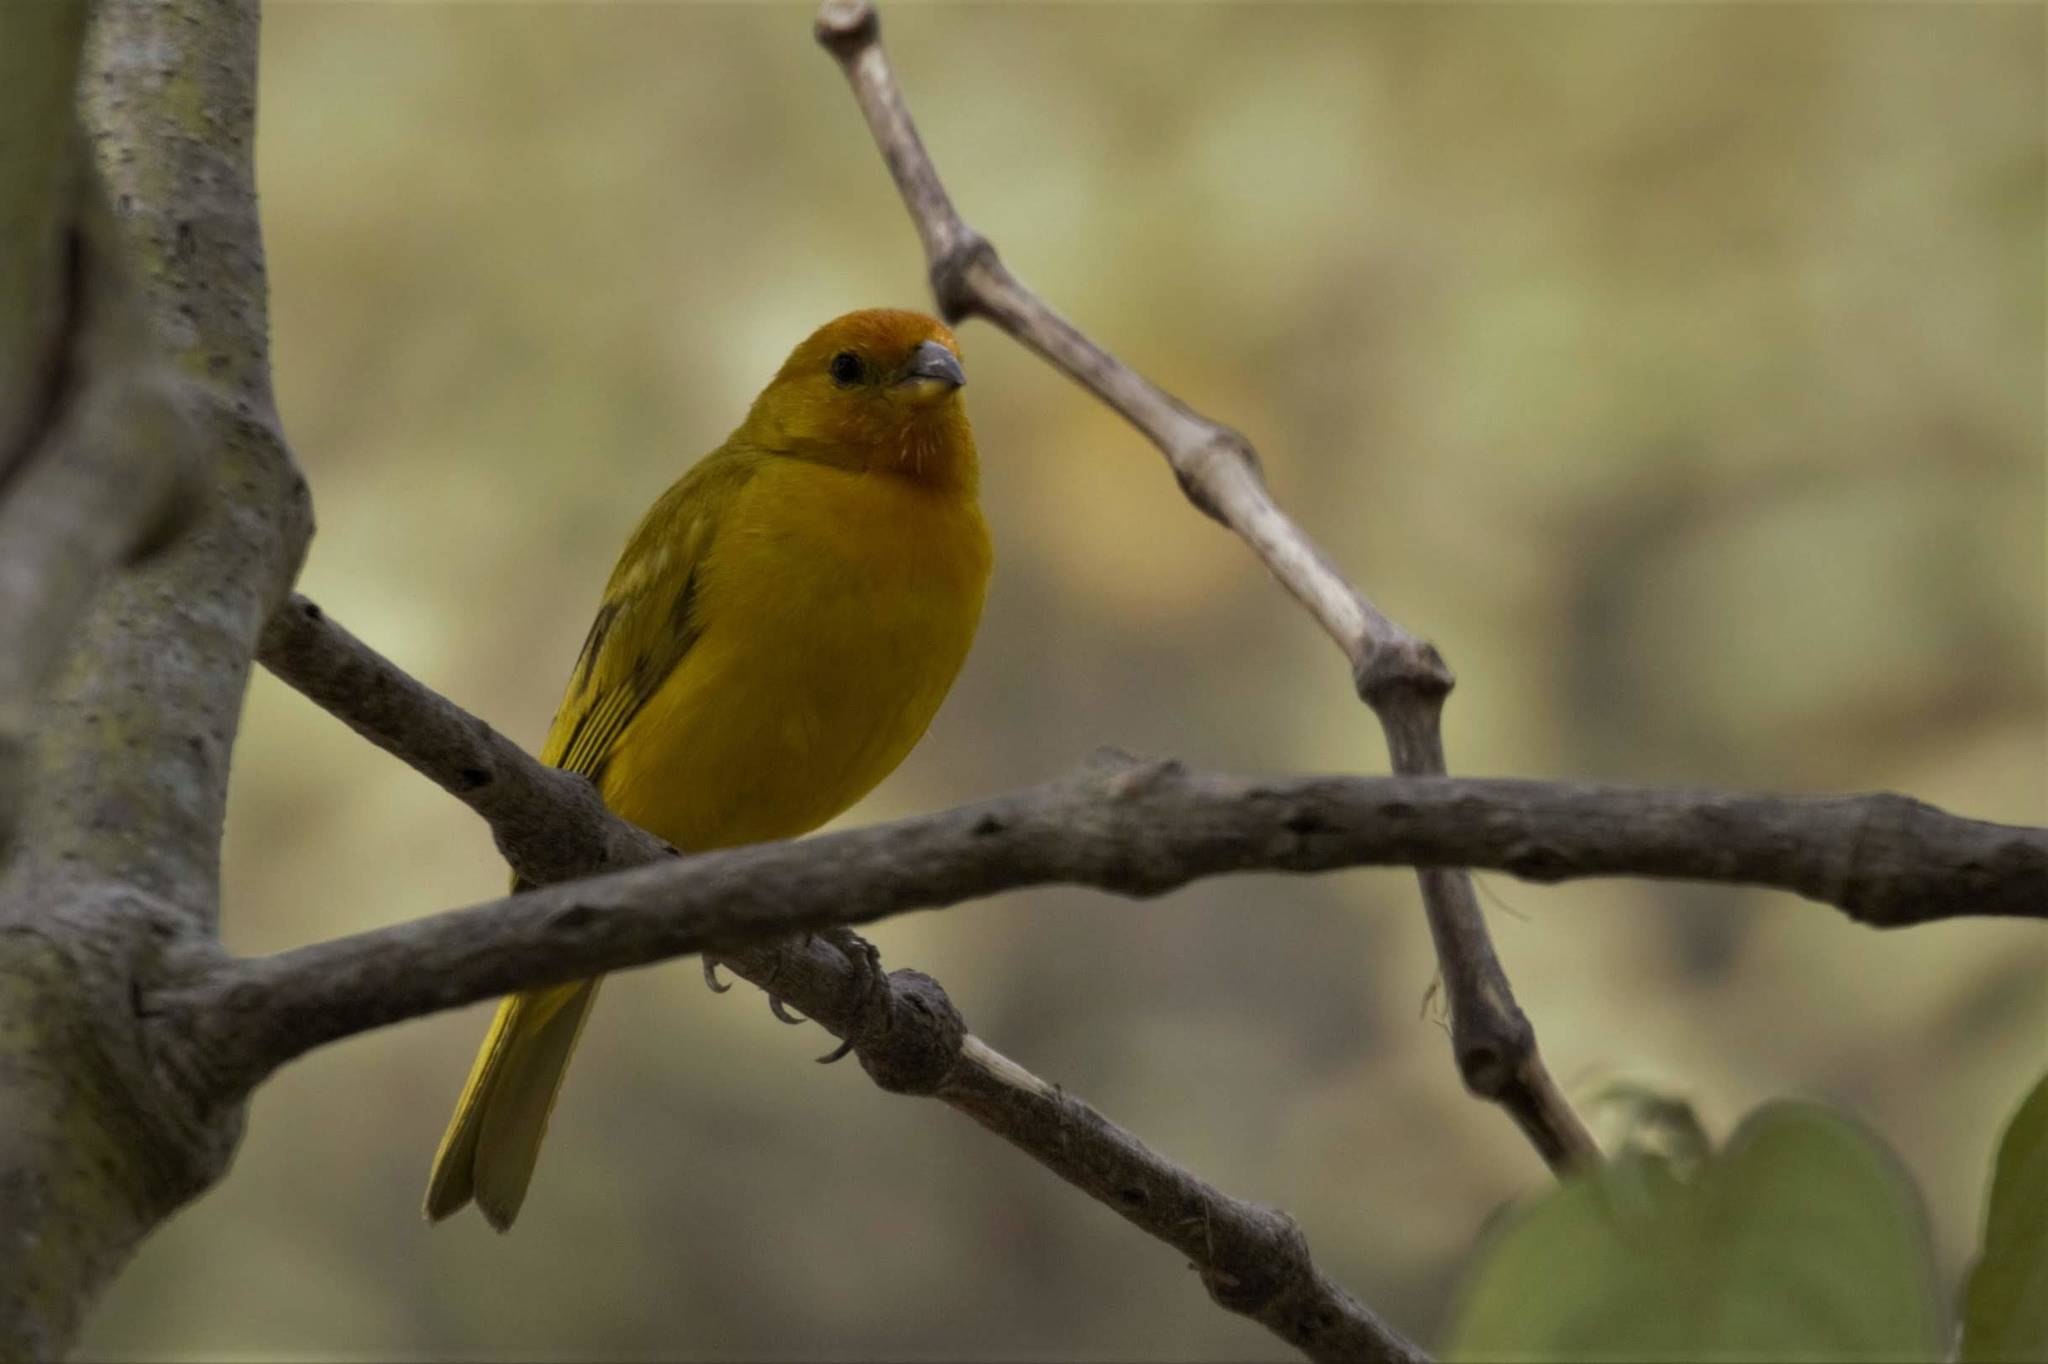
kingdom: Animalia
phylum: Chordata
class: Aves
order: Passeriformes
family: Thraupidae
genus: Sicalis
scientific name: Sicalis flaveola
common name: Saffron finch
